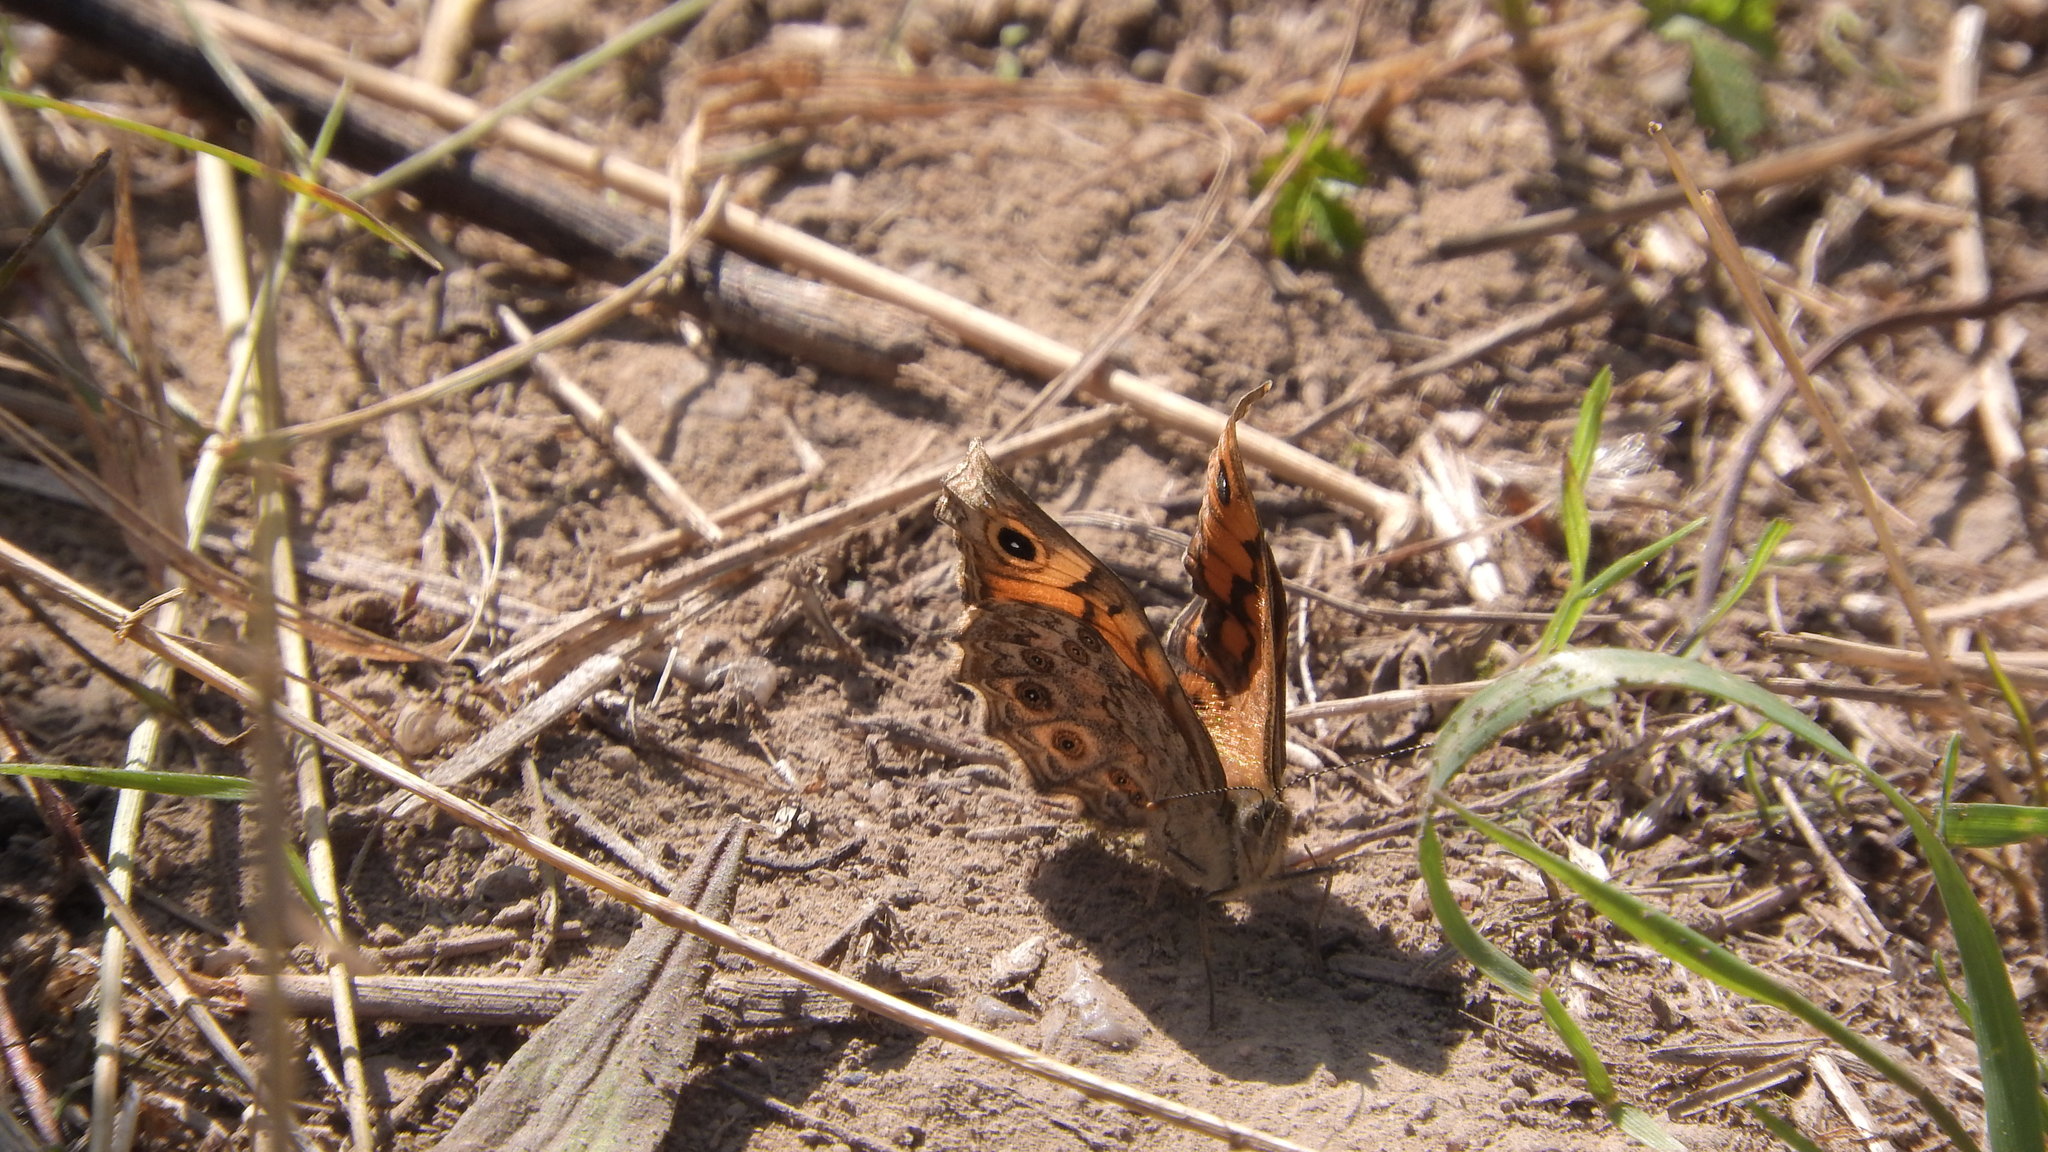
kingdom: Animalia
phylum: Arthropoda
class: Insecta
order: Lepidoptera
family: Nymphalidae
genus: Pararge
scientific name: Pararge Lasiommata megera
